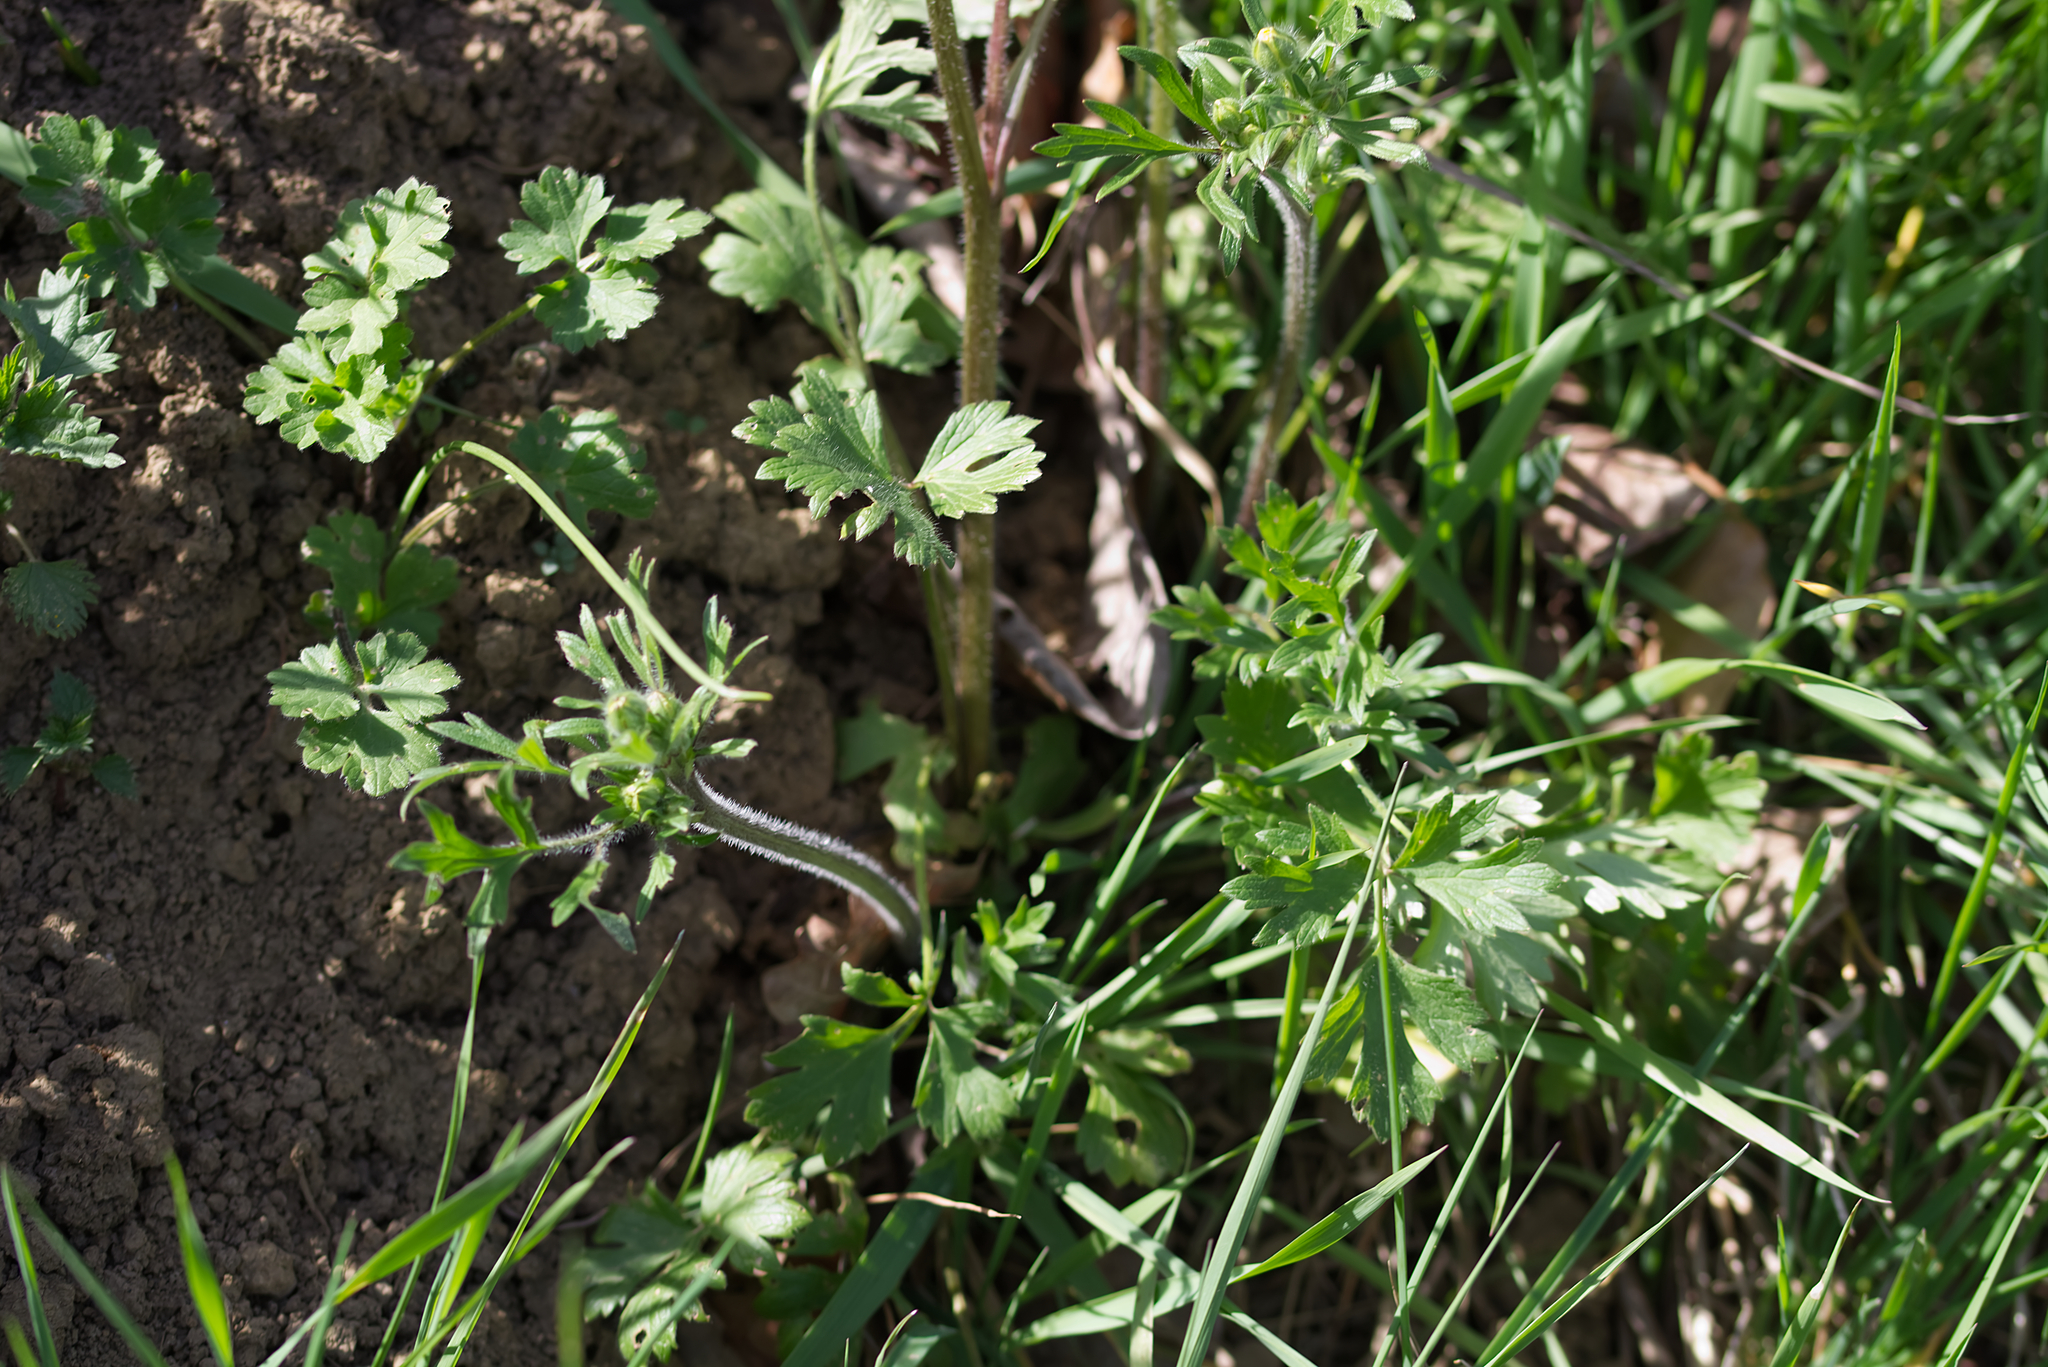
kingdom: Plantae
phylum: Tracheophyta
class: Magnoliopsida
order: Ranunculales
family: Ranunculaceae
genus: Ranunculus
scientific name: Ranunculus bulbosus
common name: Bulbous buttercup
